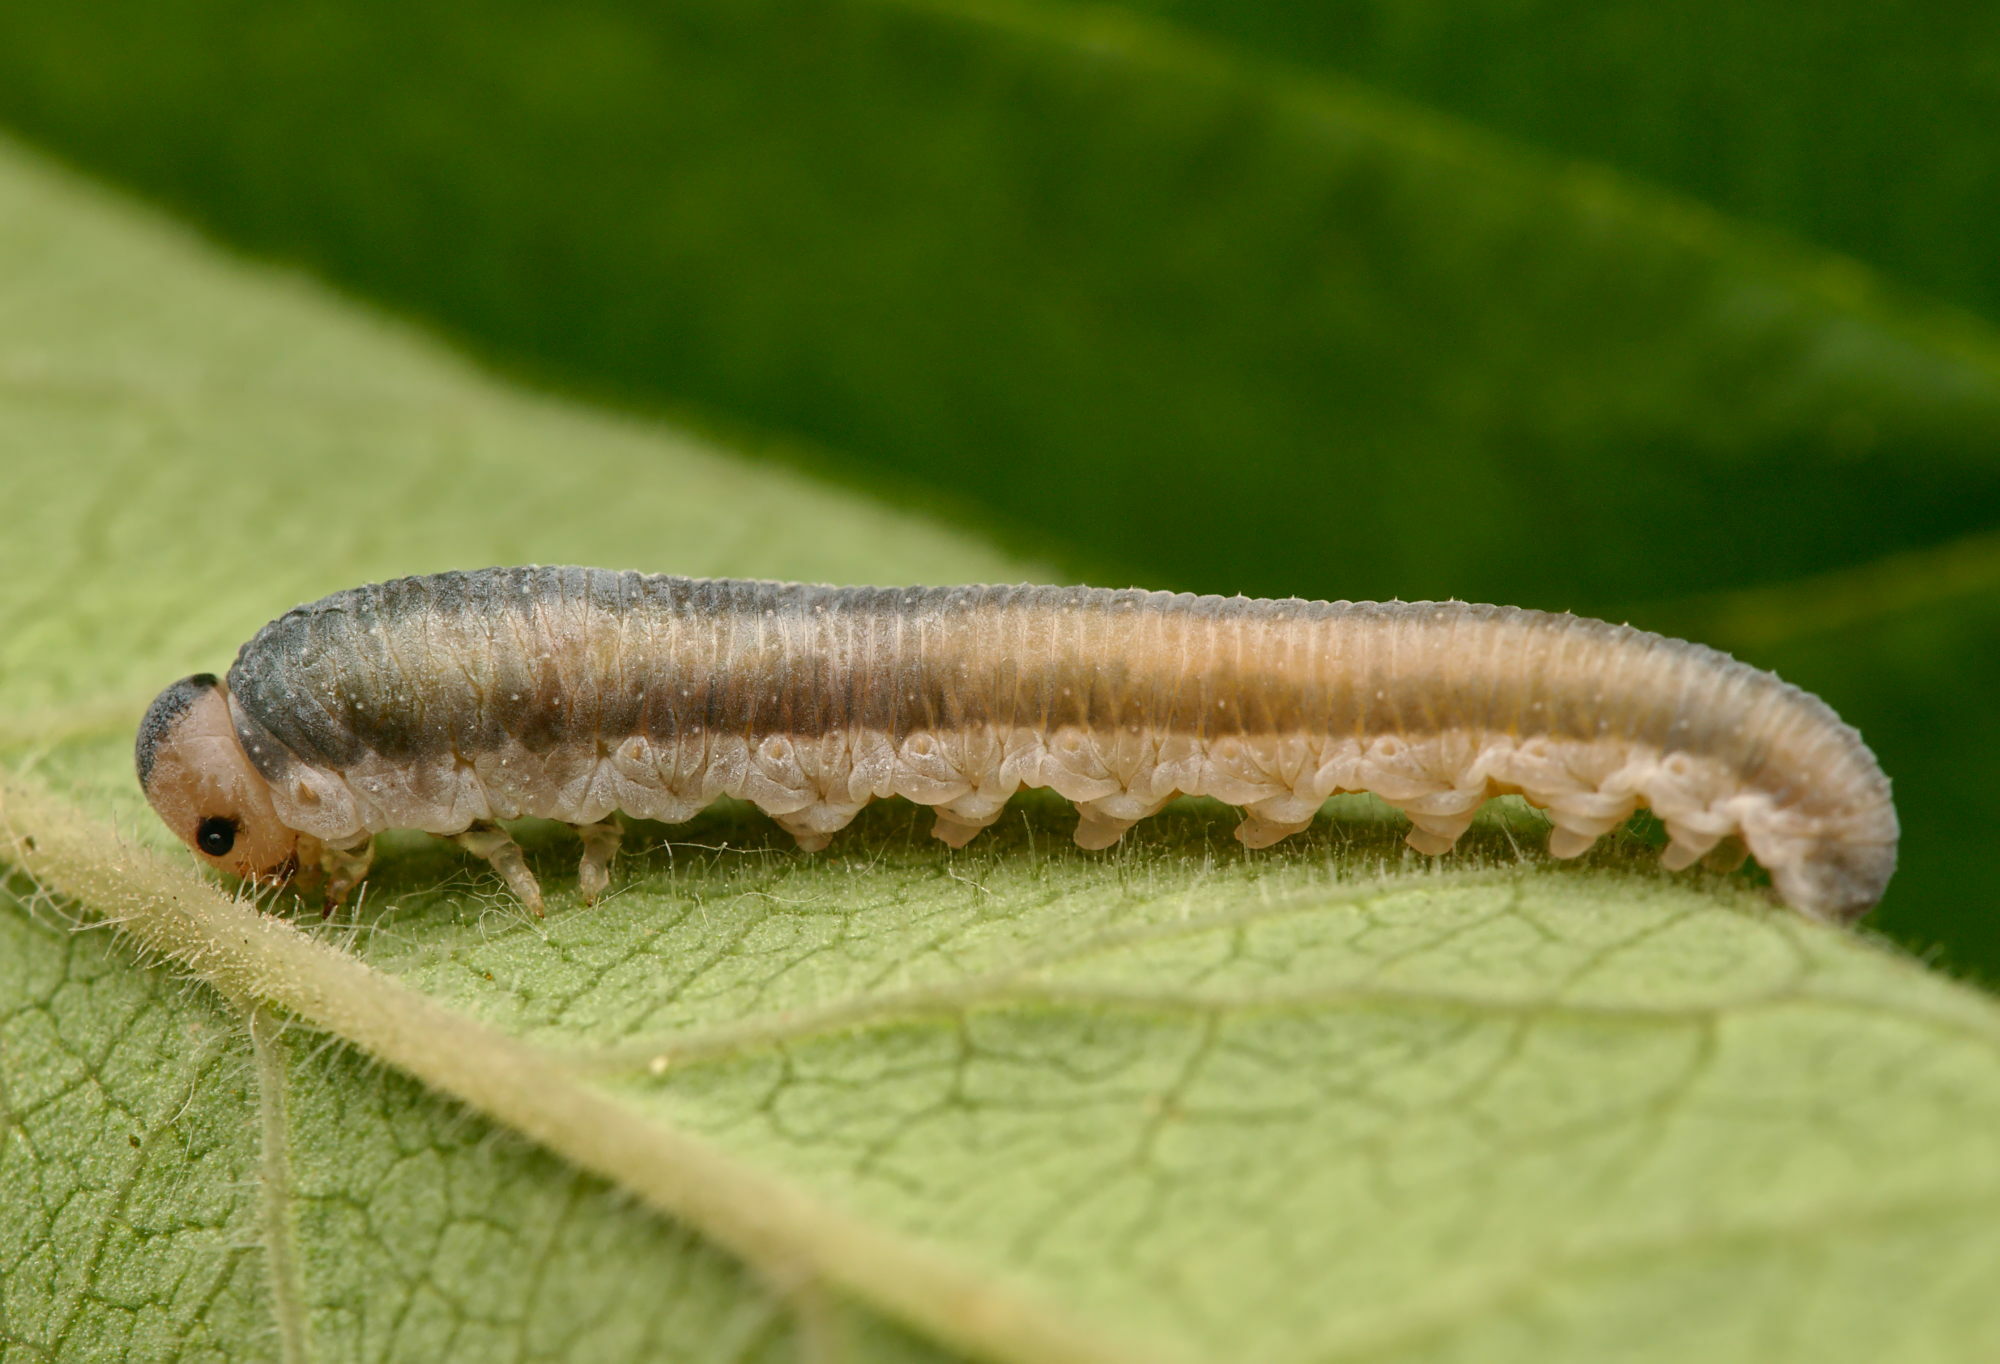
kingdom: Animalia
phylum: Arthropoda
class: Insecta
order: Hymenoptera
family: Tenthredinidae
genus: Monostegia
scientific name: Monostegia abdominalis
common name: Tenthredid wasp
